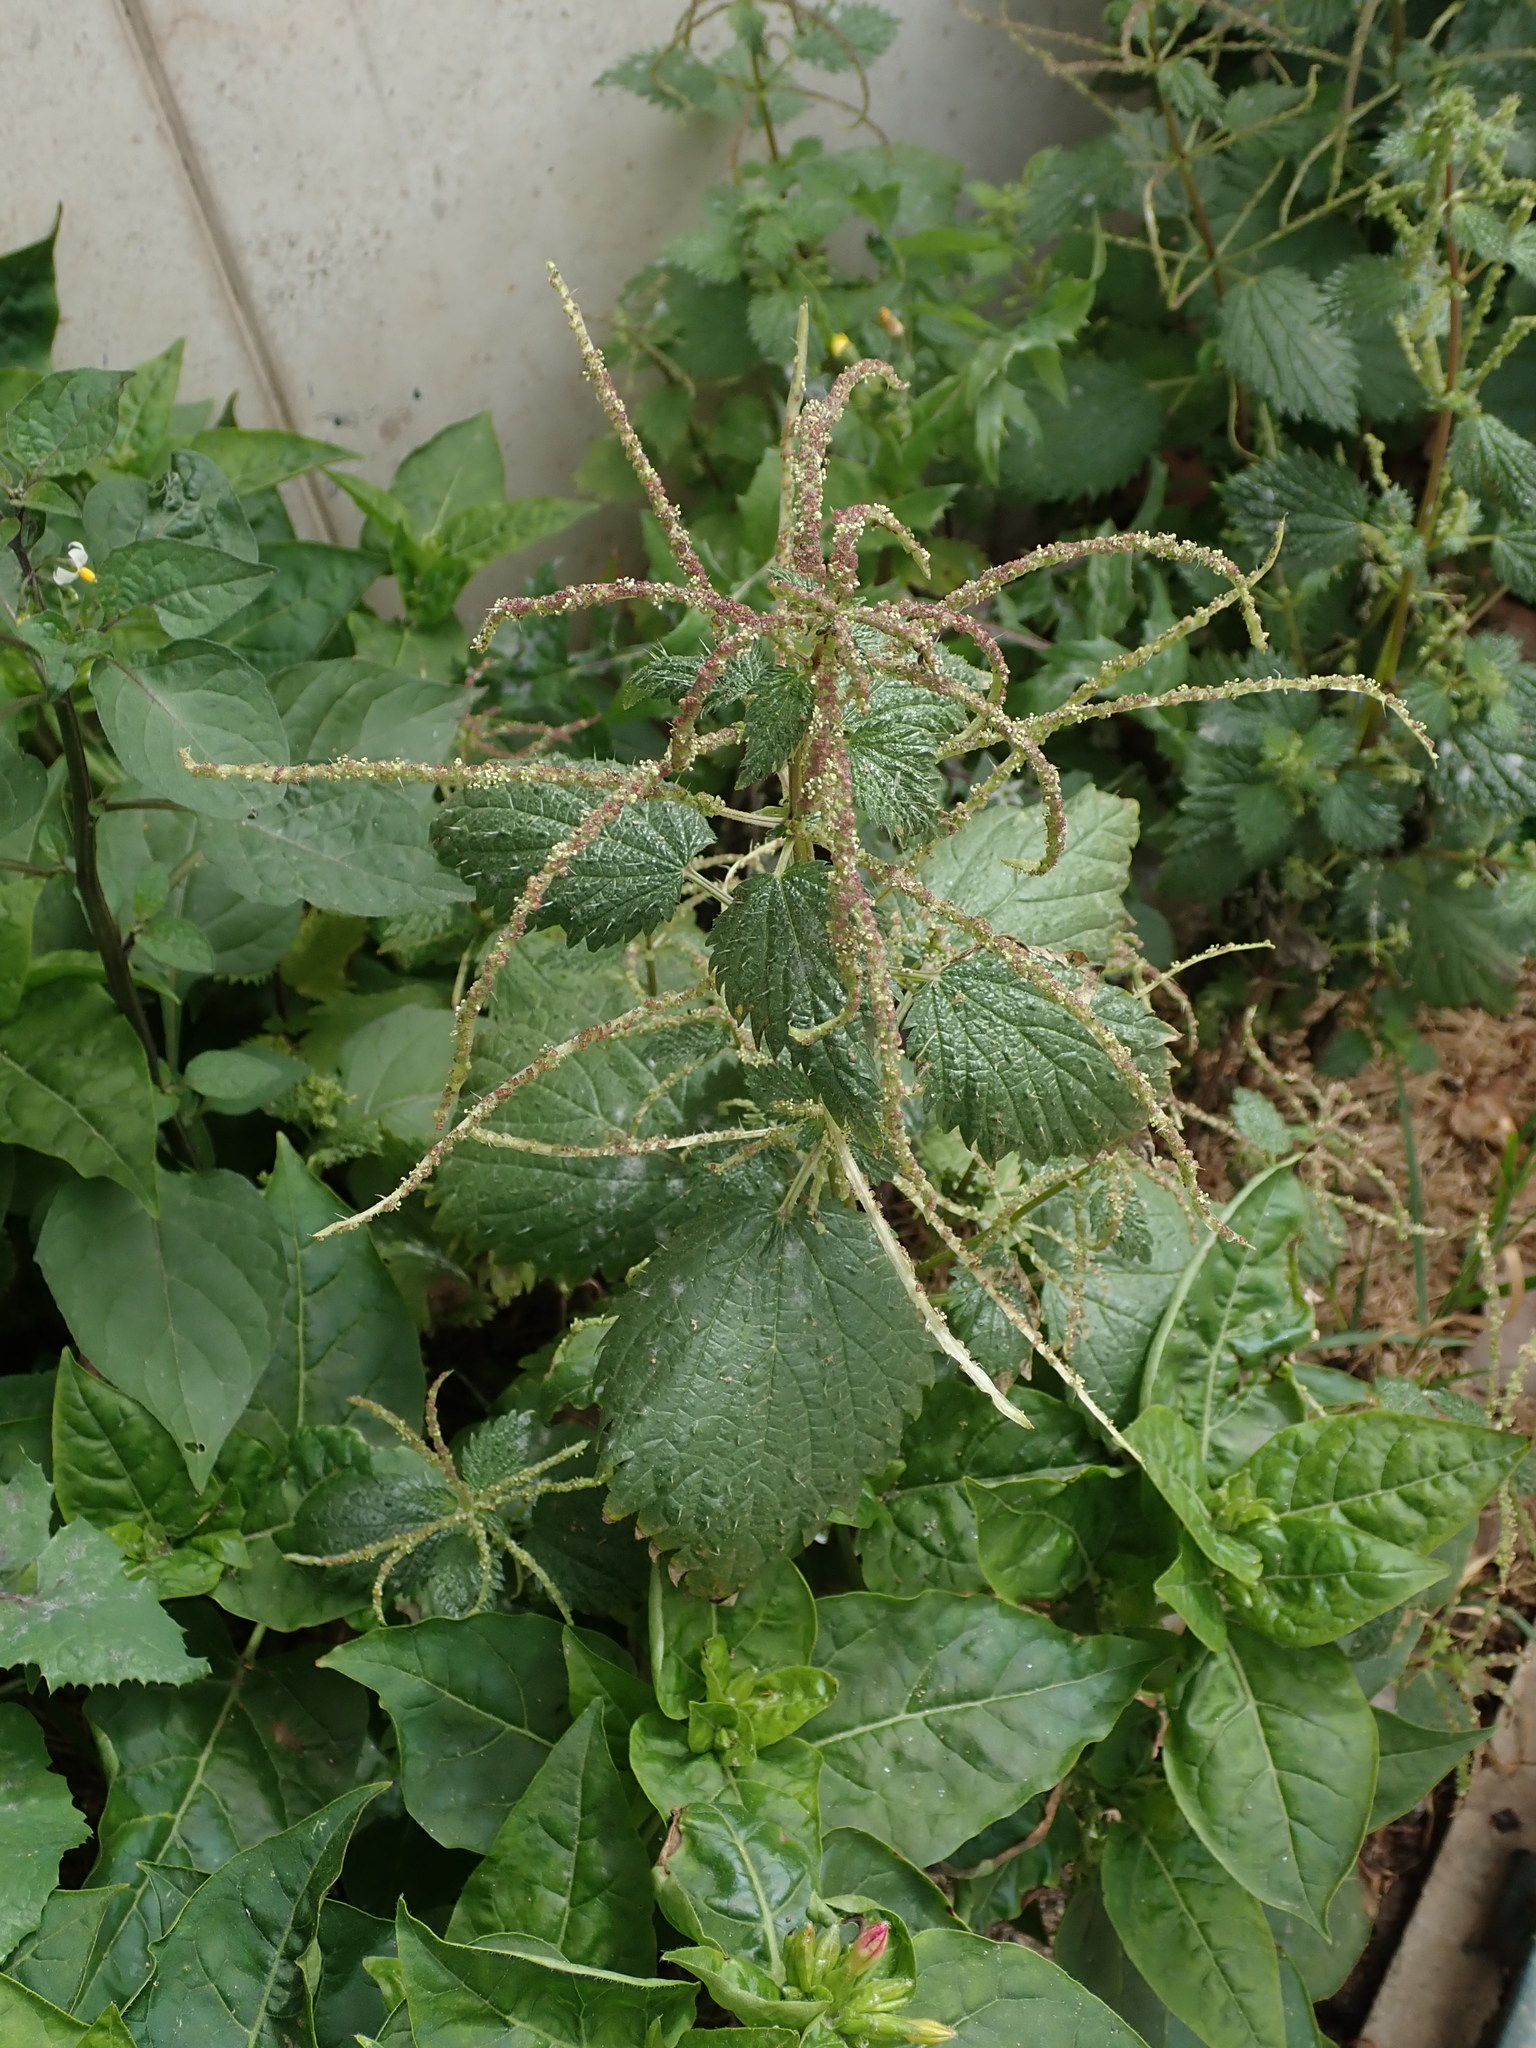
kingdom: Plantae
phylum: Tracheophyta
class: Magnoliopsida
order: Rosales
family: Urticaceae
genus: Urtica
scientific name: Urtica membranacea
